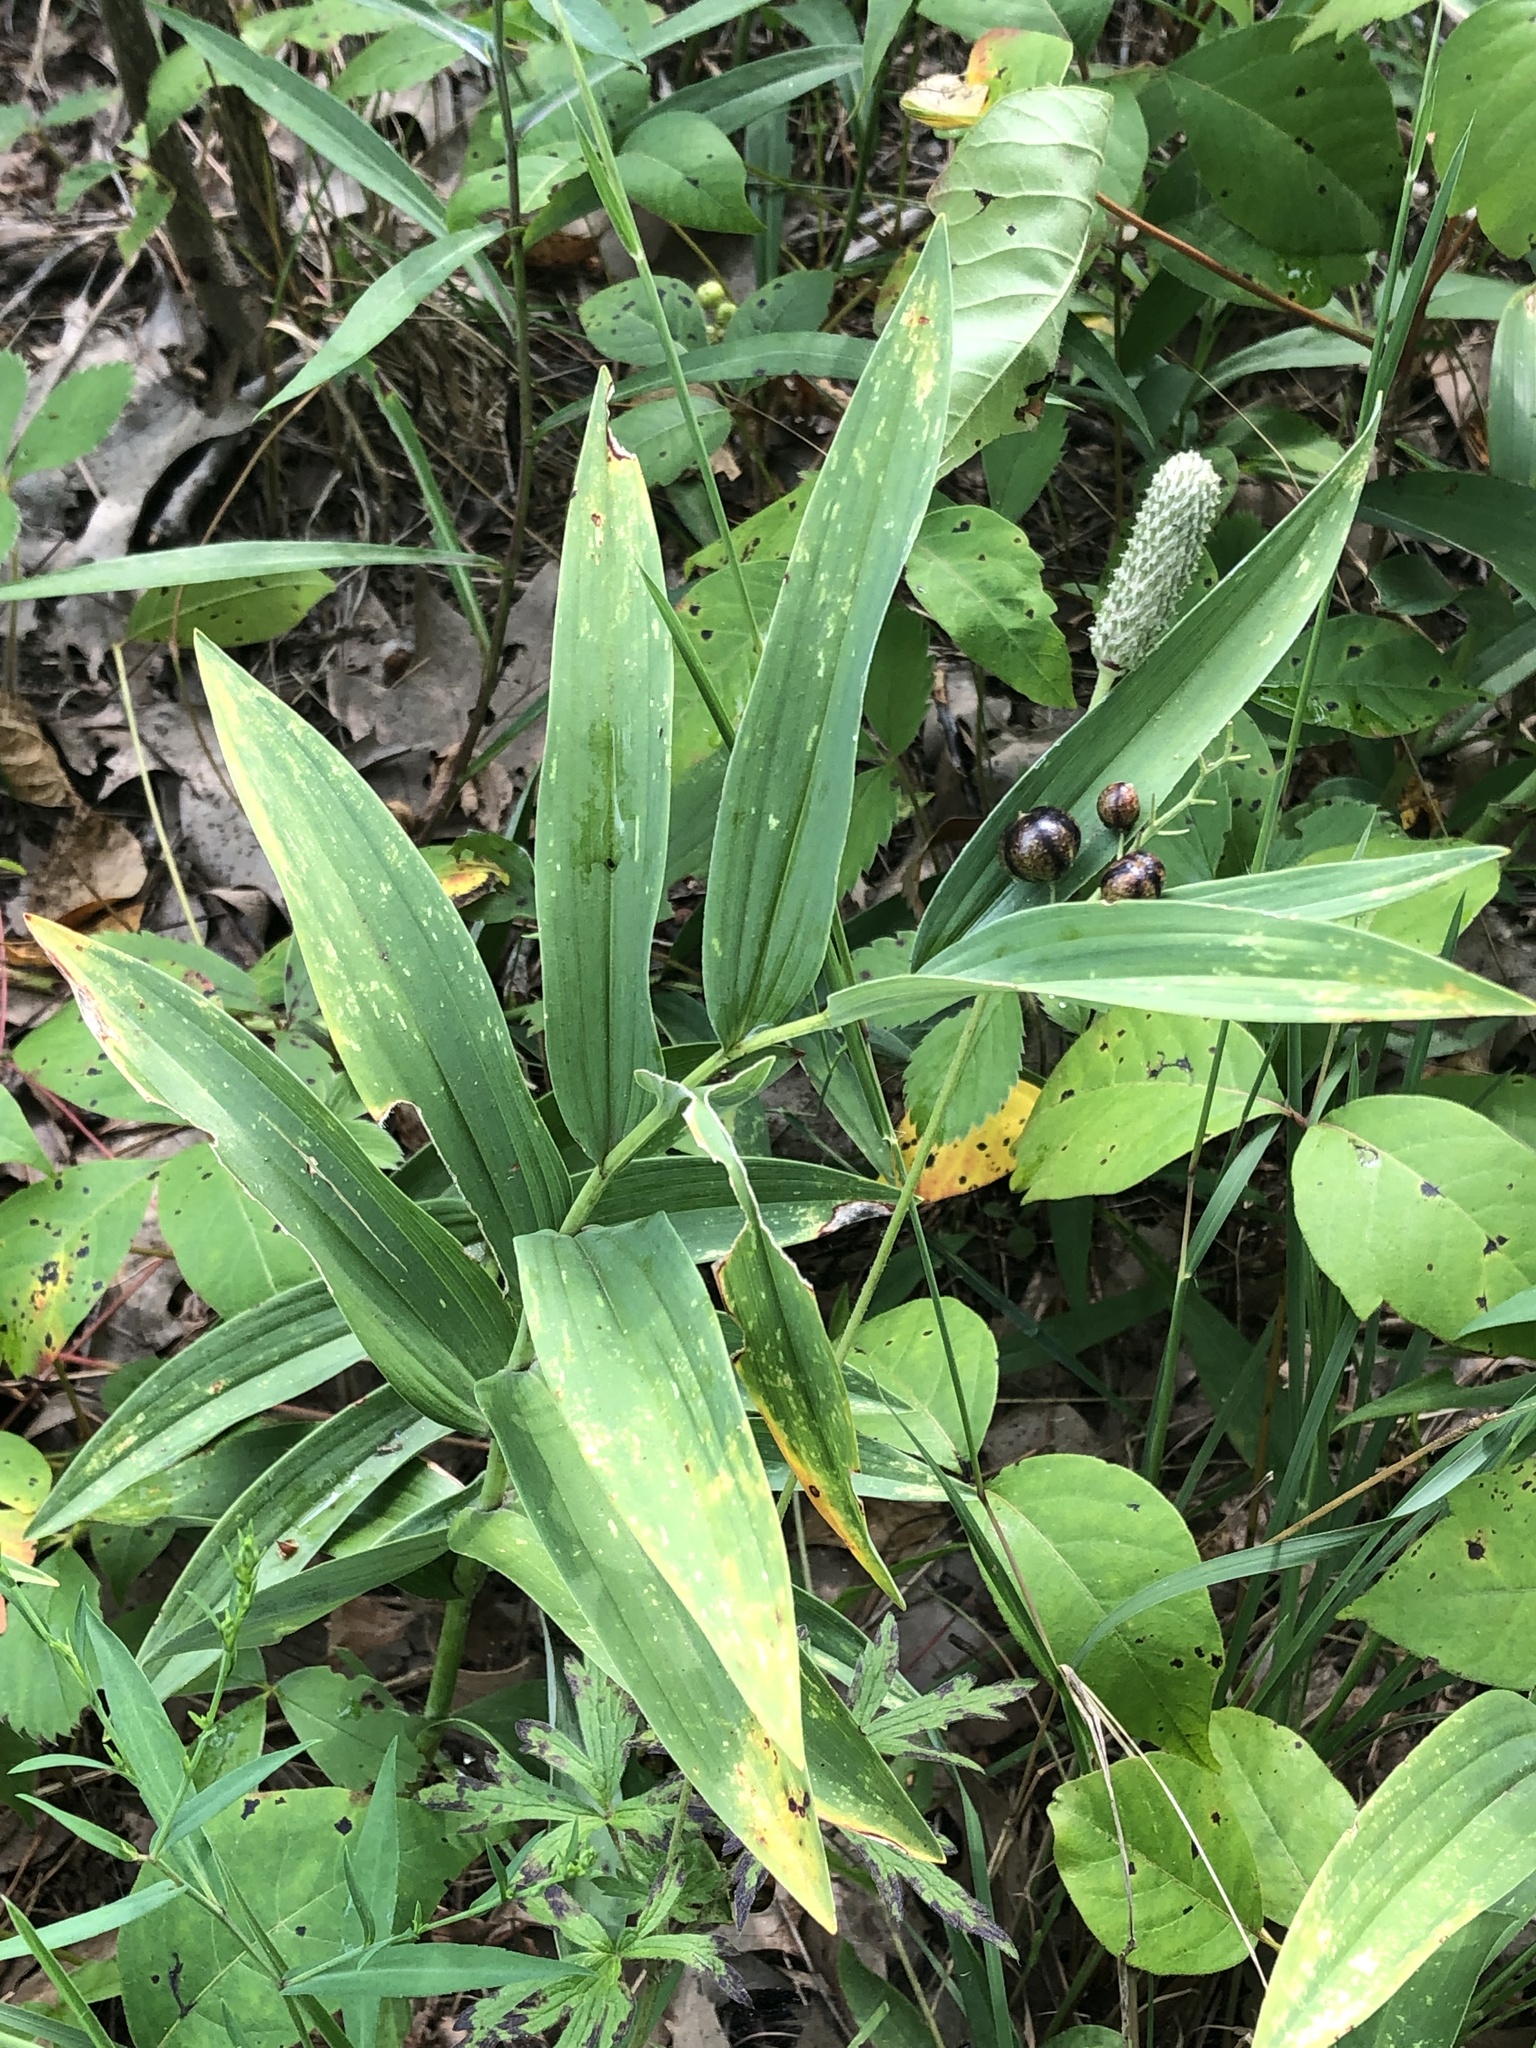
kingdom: Plantae
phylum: Tracheophyta
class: Liliopsida
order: Asparagales
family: Asparagaceae
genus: Maianthemum
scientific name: Maianthemum stellatum
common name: Little false solomon's seal
